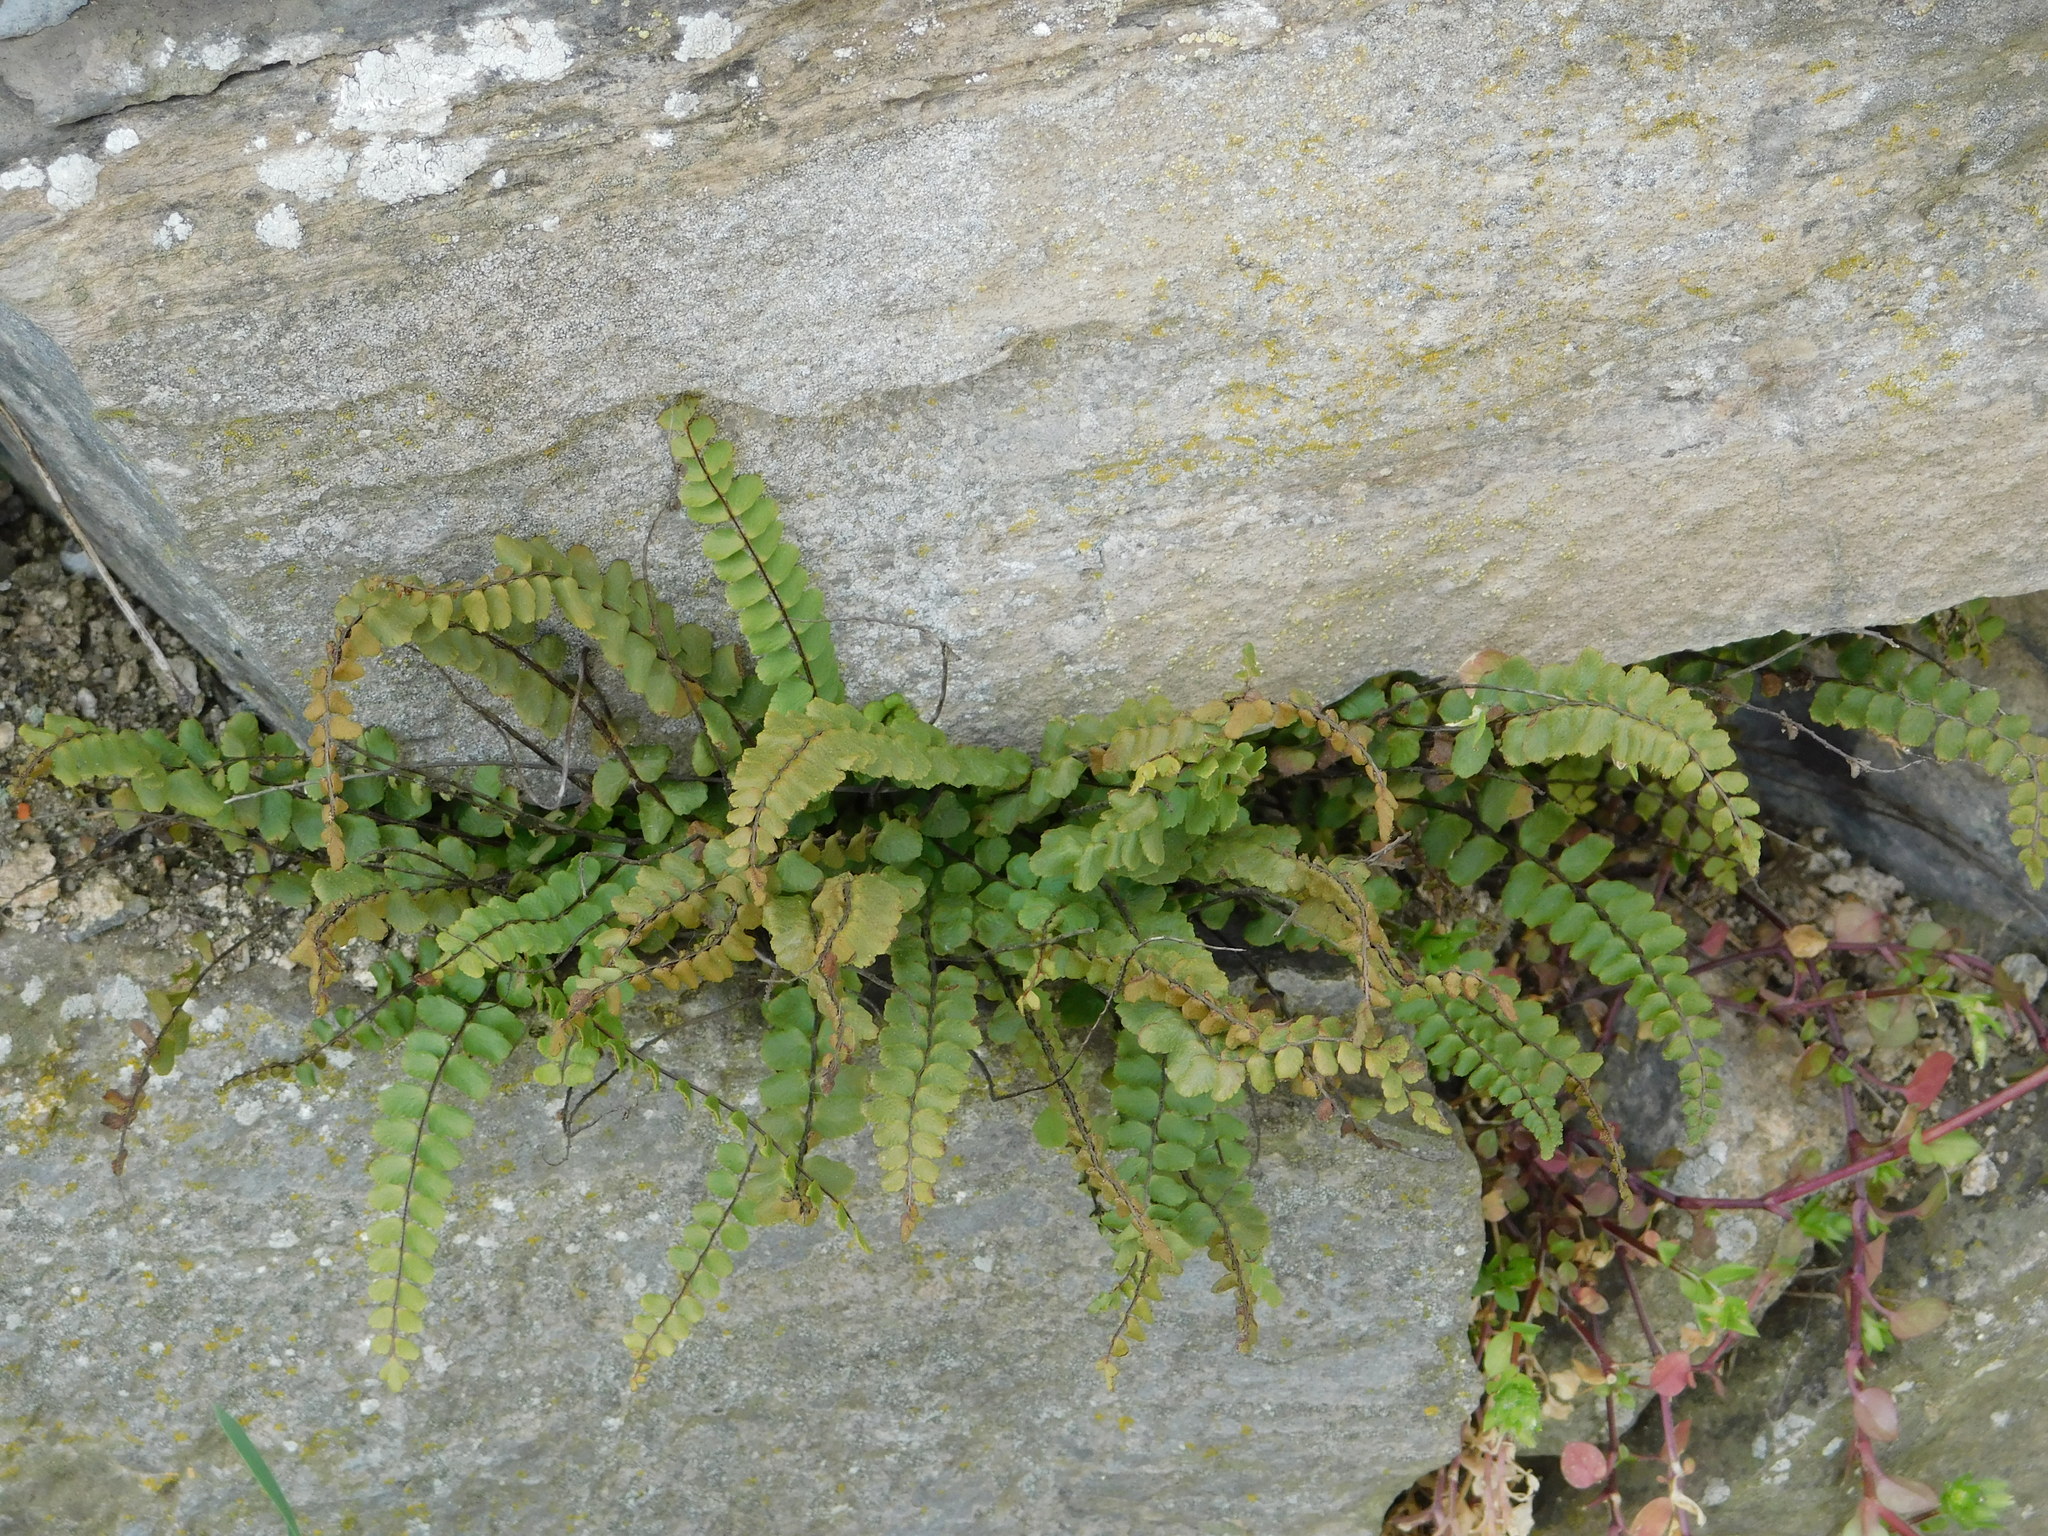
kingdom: Plantae
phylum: Tracheophyta
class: Polypodiopsida
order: Polypodiales
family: Aspleniaceae
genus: Asplenium
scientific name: Asplenium trichomanes
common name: Maidenhair spleenwort
